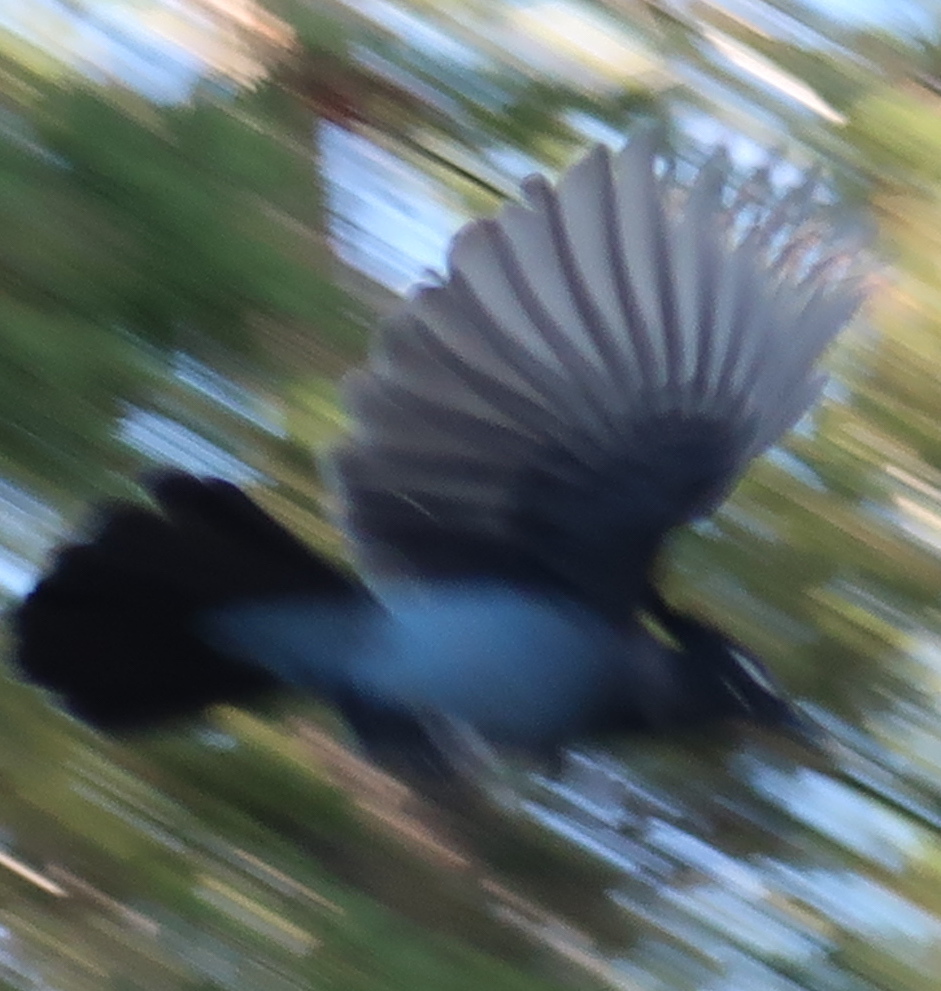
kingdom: Animalia
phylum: Chordata
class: Aves
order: Passeriformes
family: Corvidae
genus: Cyanocitta
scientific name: Cyanocitta stelleri
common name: Steller's jay
